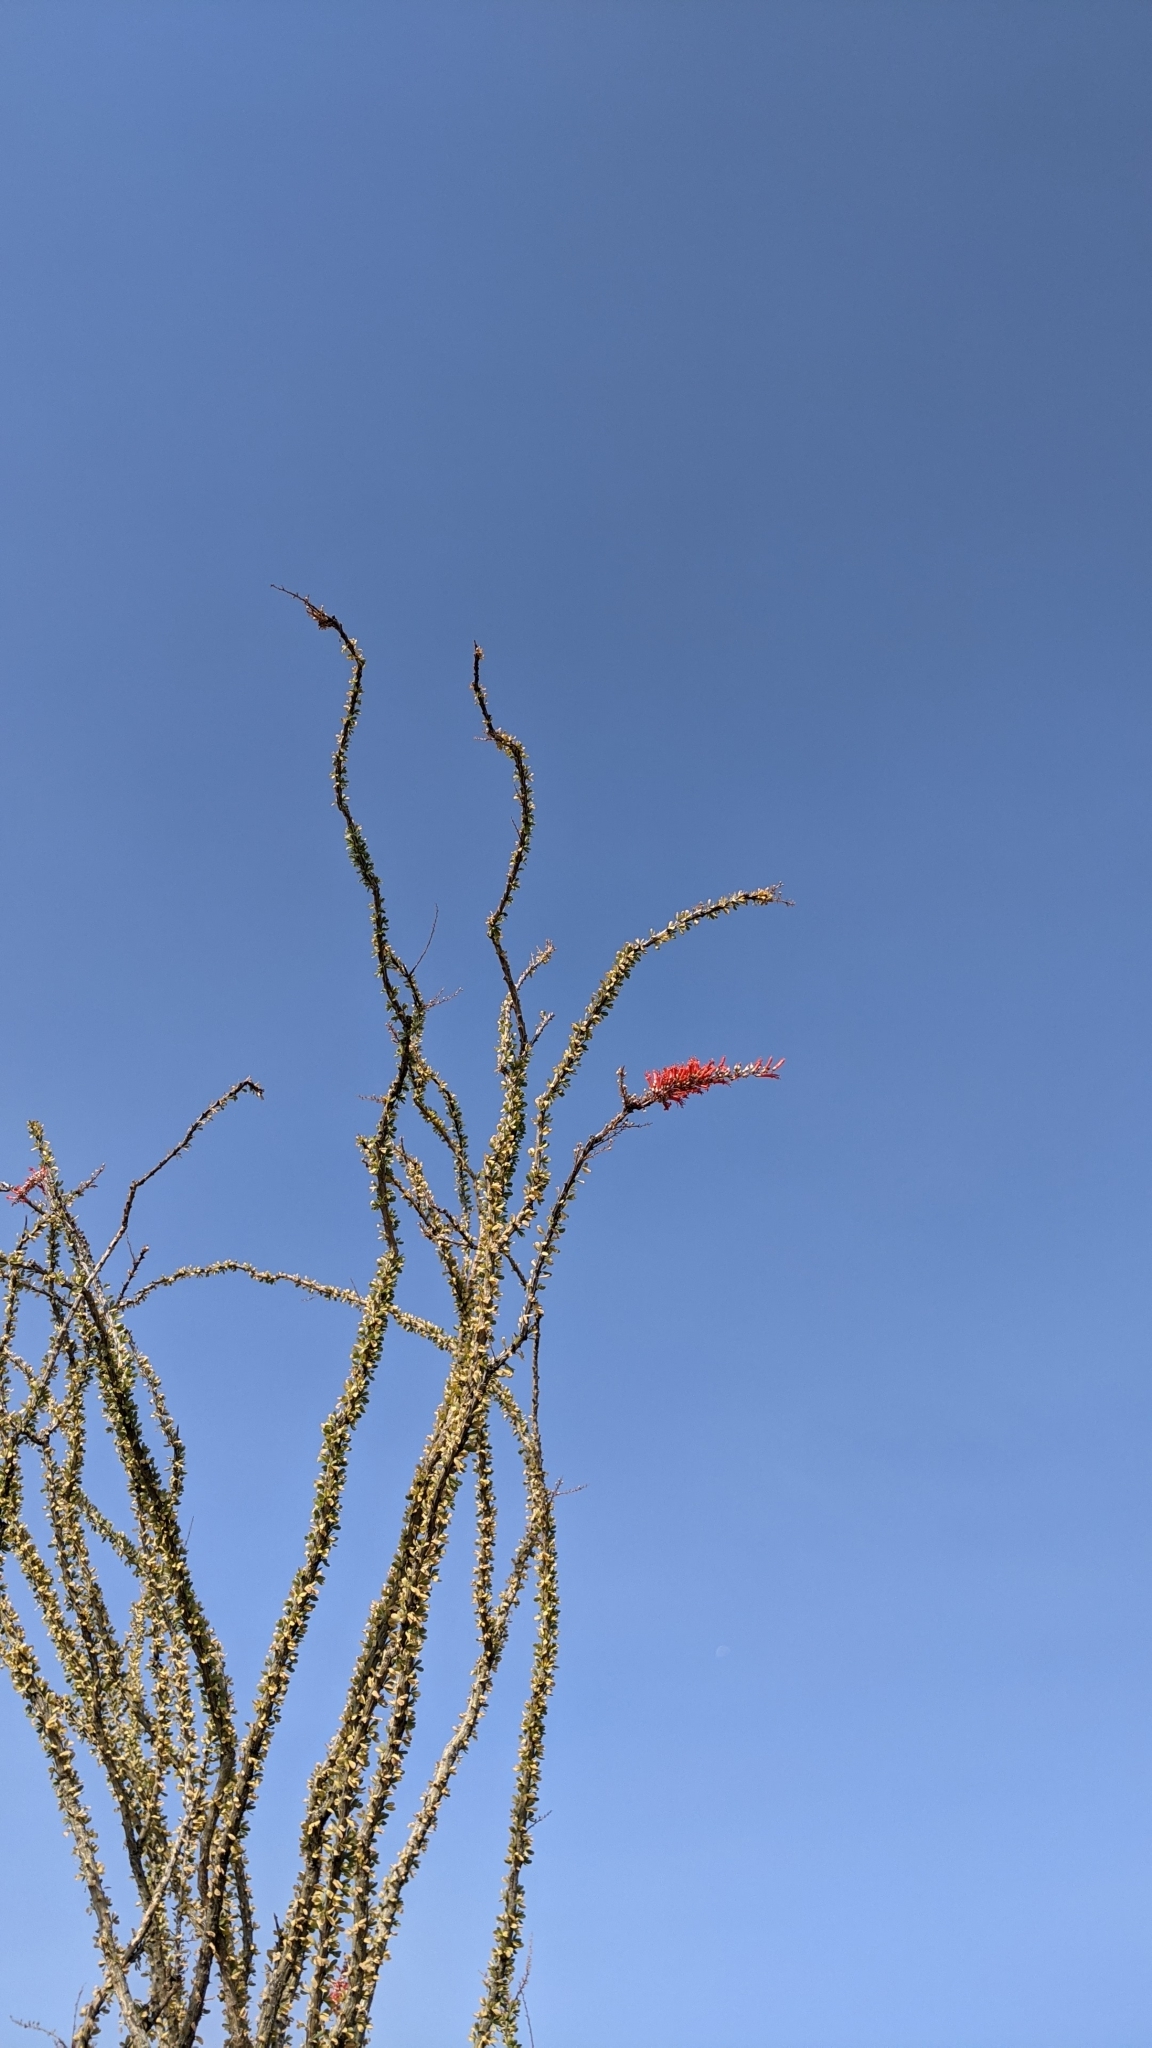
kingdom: Plantae
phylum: Tracheophyta
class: Magnoliopsida
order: Ericales
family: Fouquieriaceae
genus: Fouquieria
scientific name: Fouquieria splendens
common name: Vine-cactus
